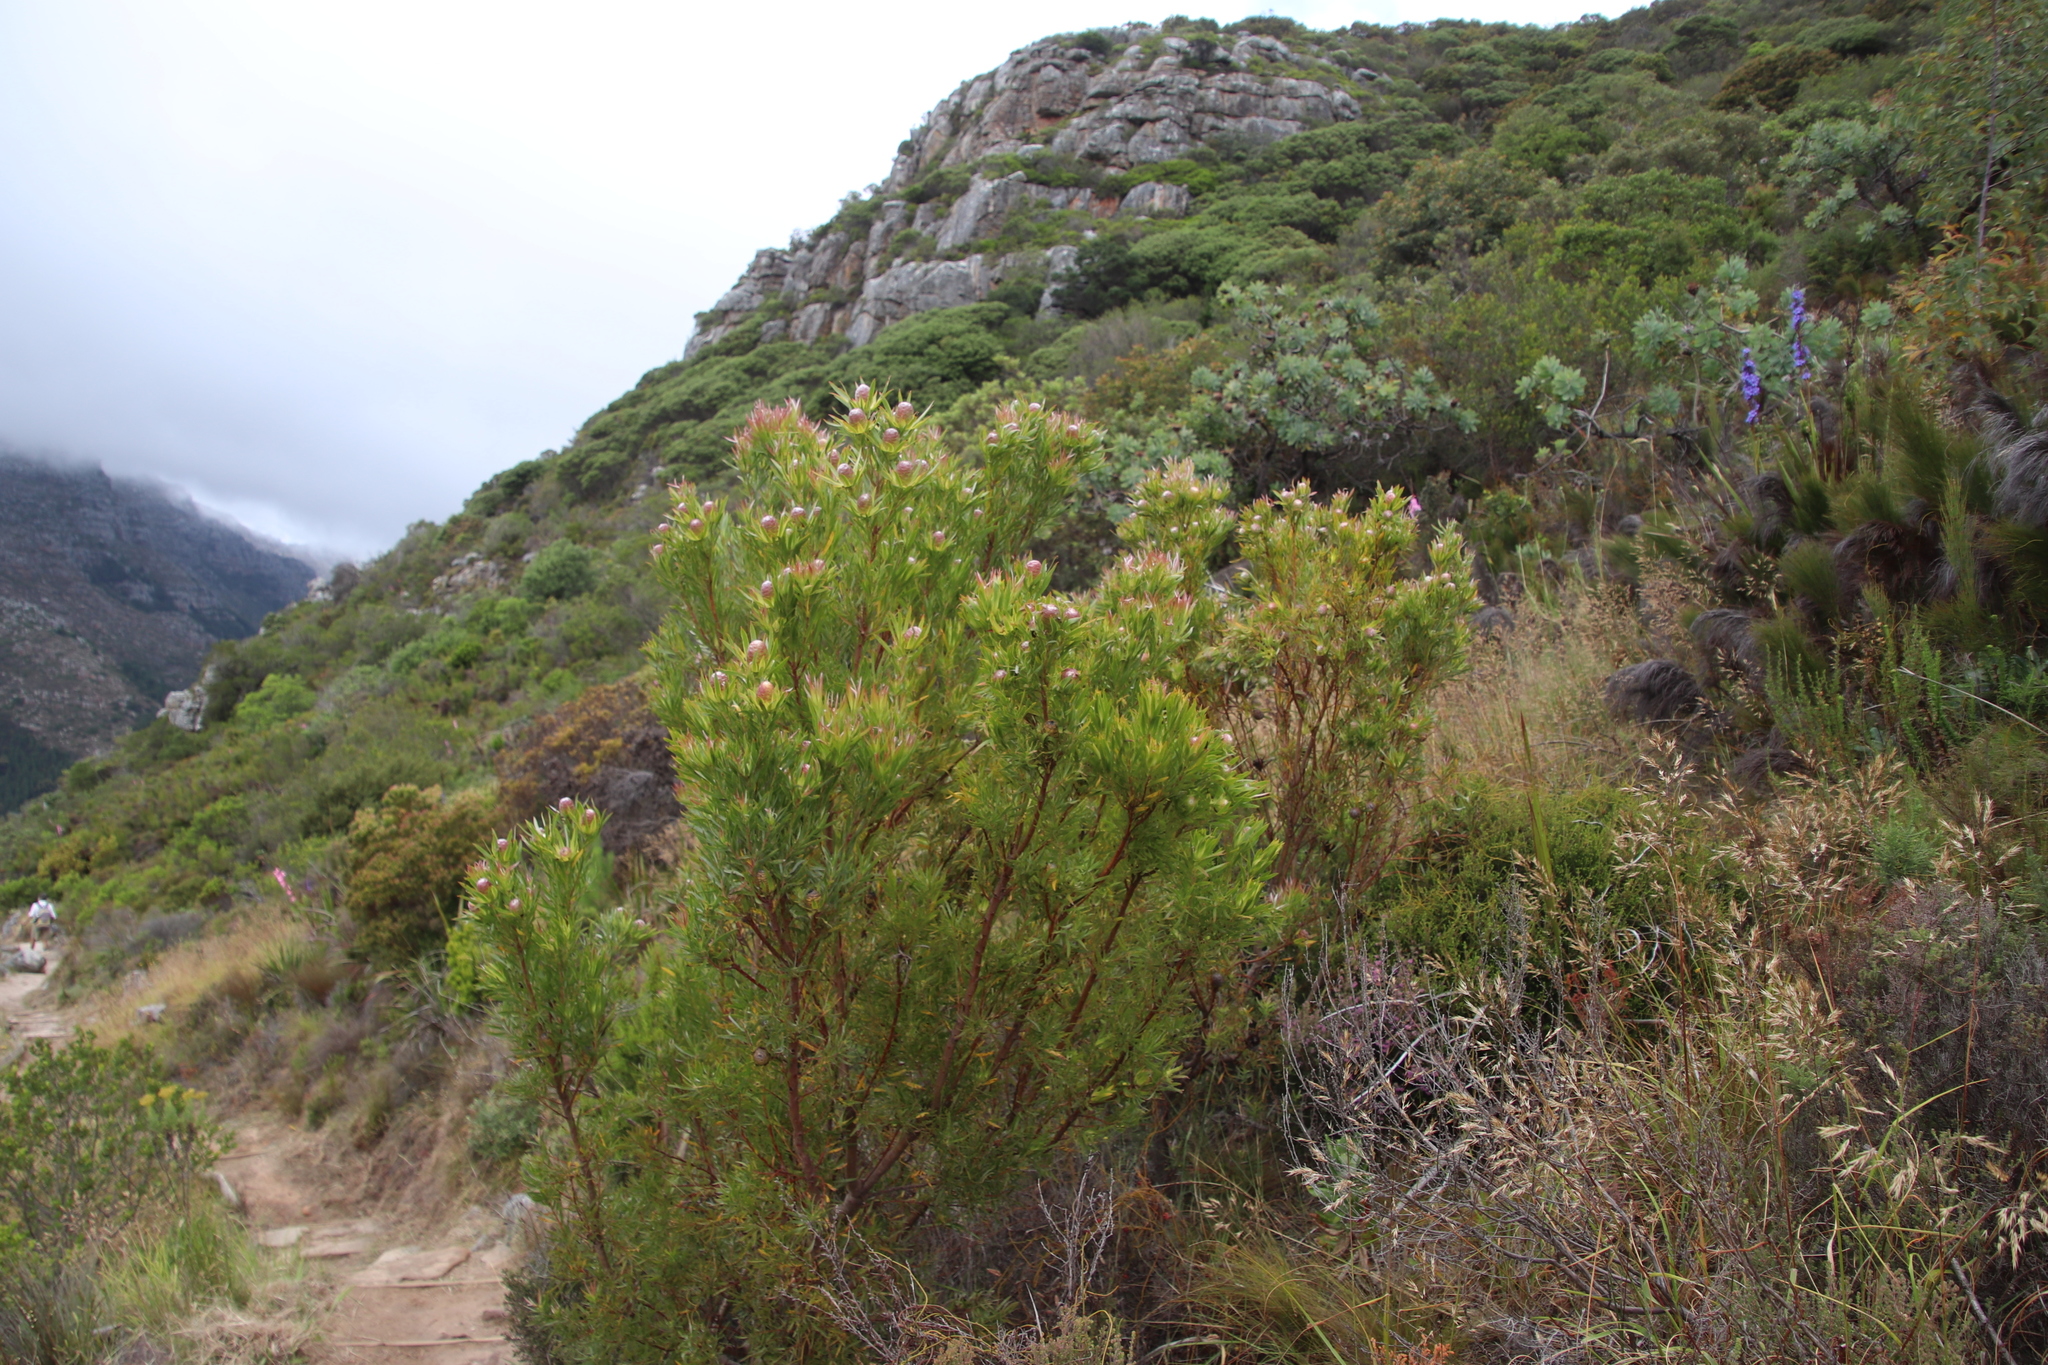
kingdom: Plantae
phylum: Tracheophyta
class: Magnoliopsida
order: Proteales
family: Proteaceae
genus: Leucadendron
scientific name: Leucadendron xanthoconus
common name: Sickle-leaf conebush
